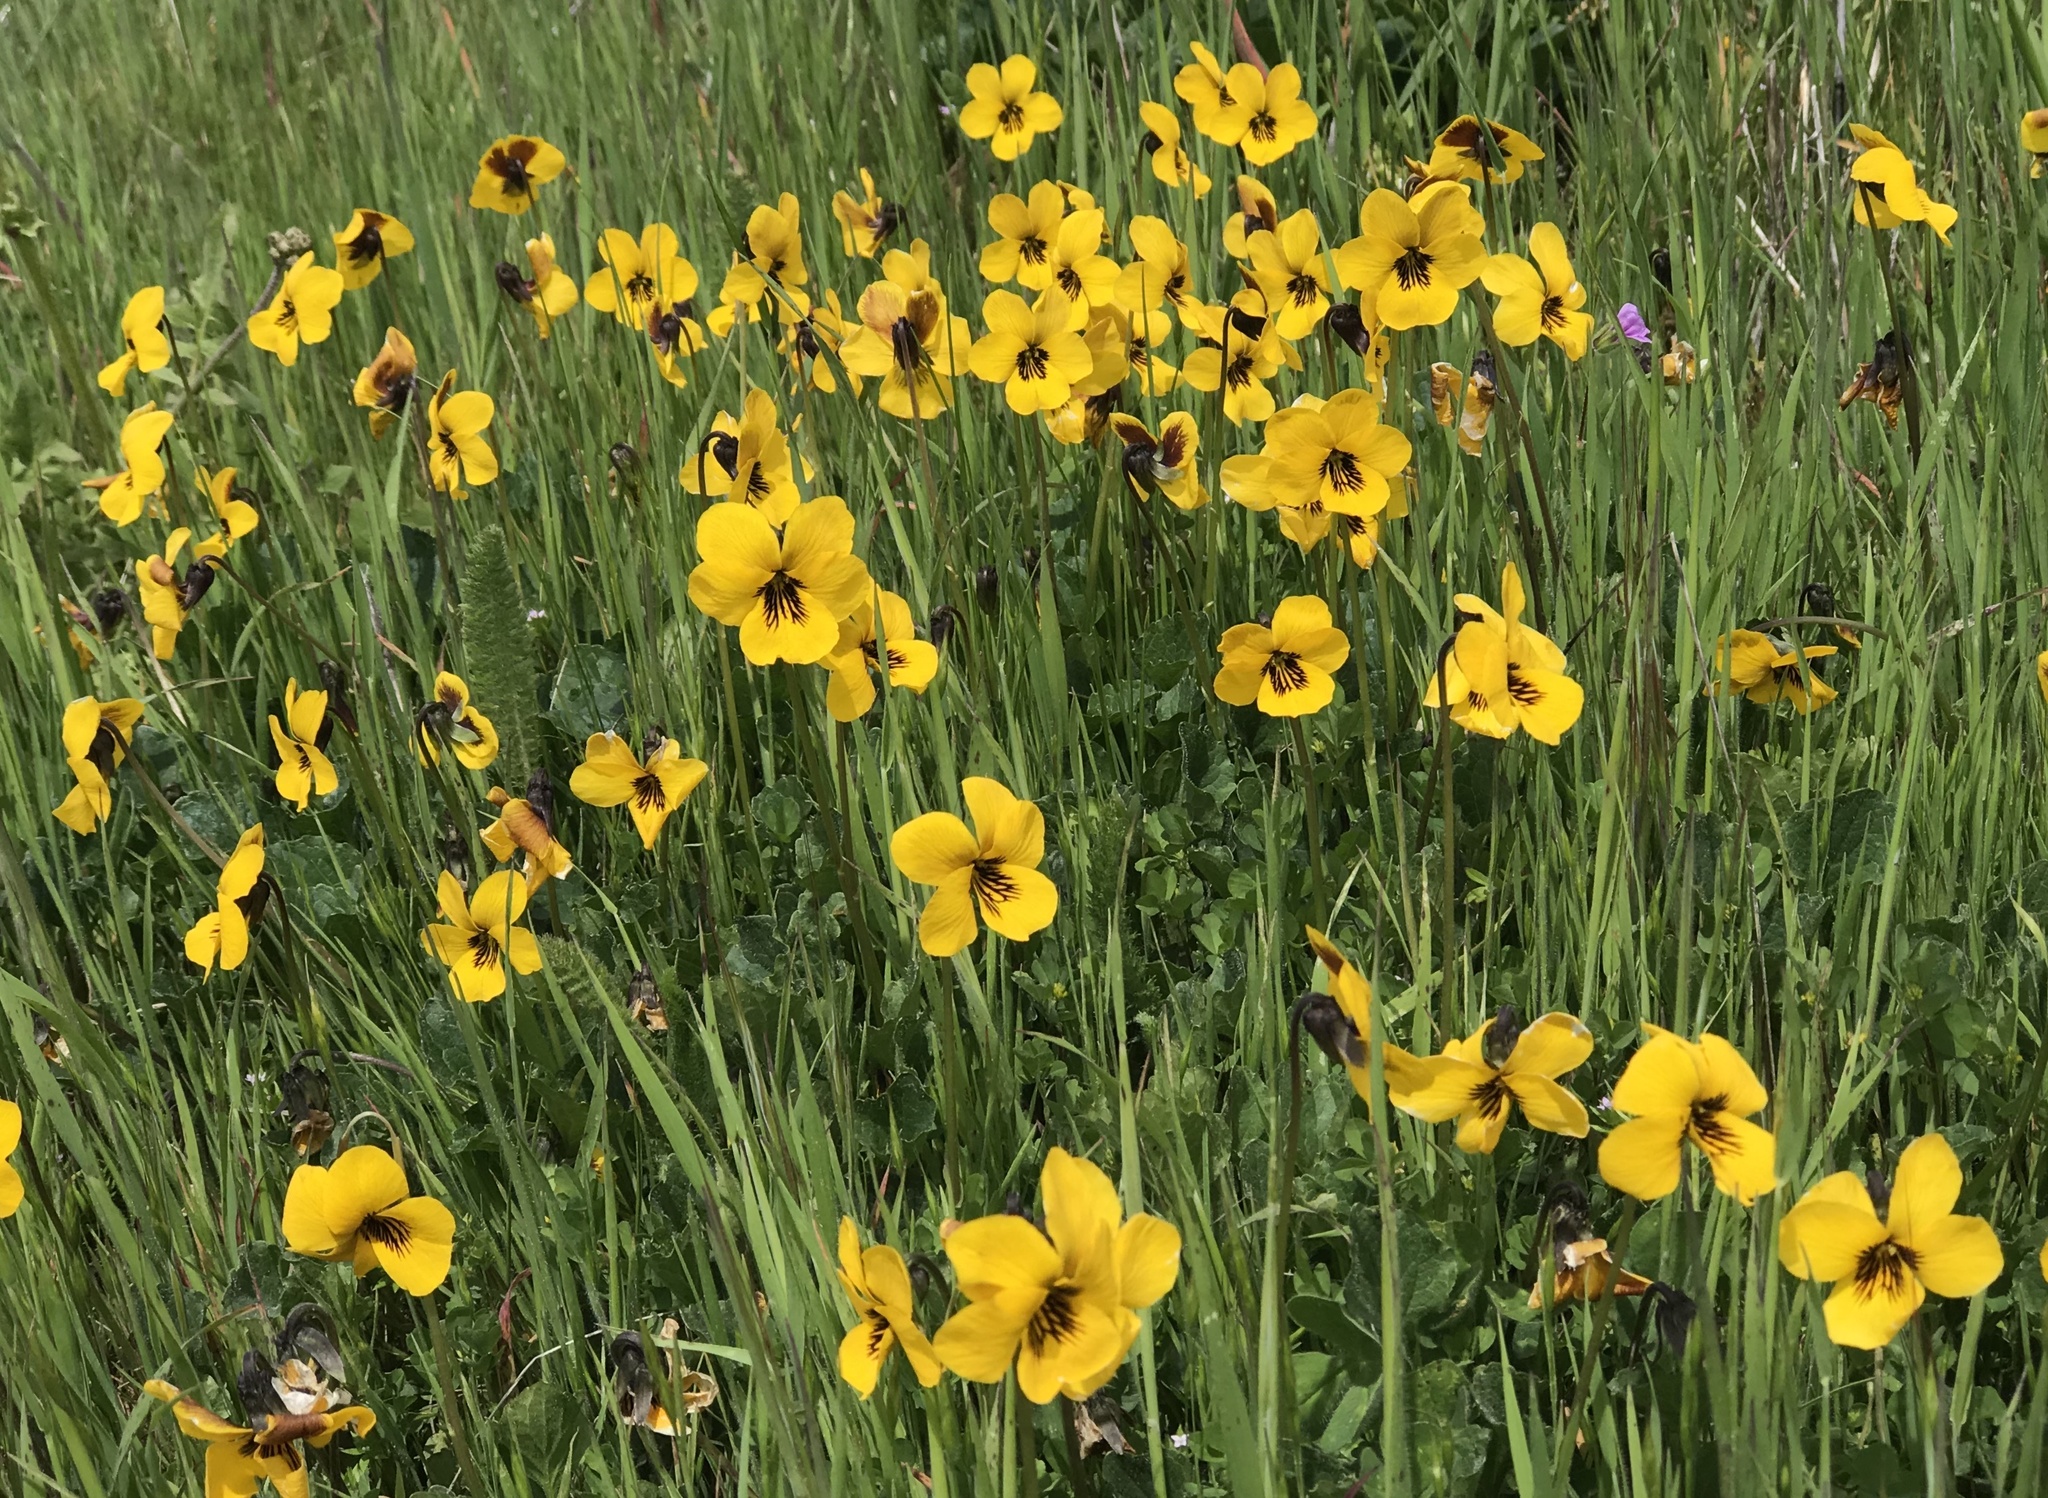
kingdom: Plantae
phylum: Tracheophyta
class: Magnoliopsida
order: Malpighiales
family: Violaceae
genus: Viola
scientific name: Viola pedunculata
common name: California golden violet
